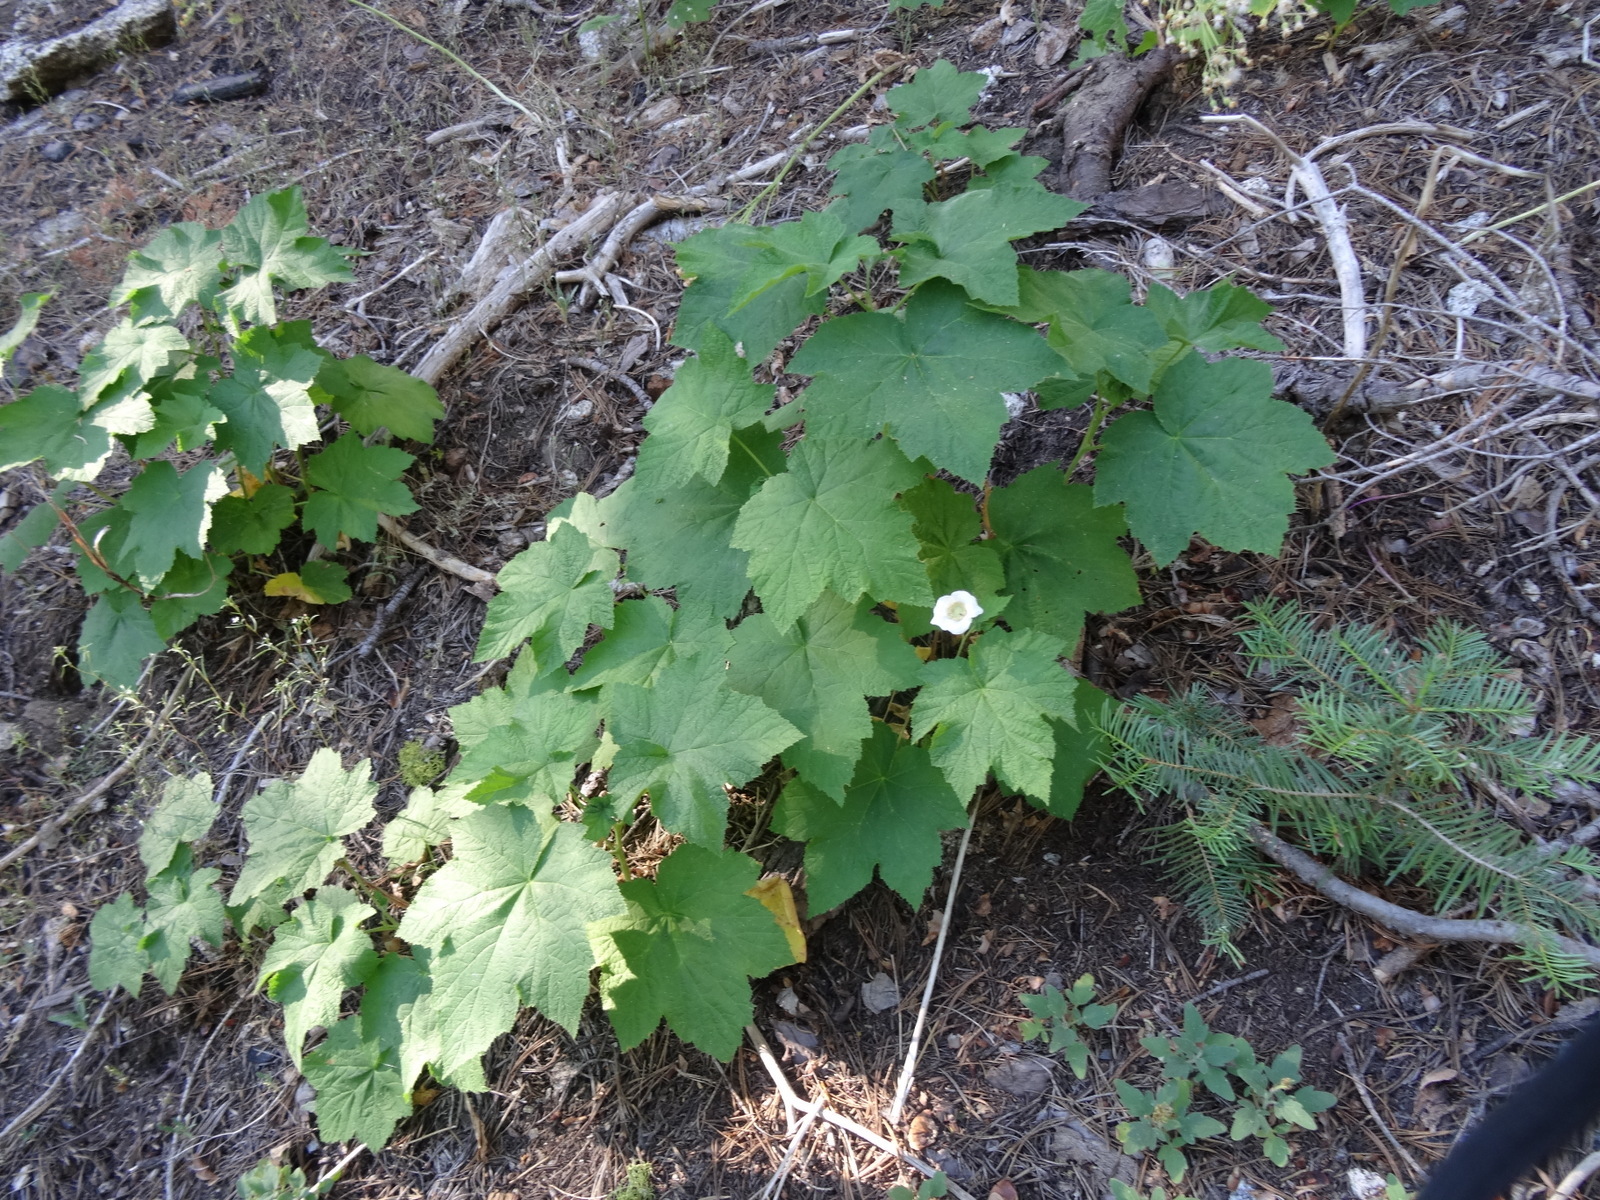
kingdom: Plantae
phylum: Tracheophyta
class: Magnoliopsida
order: Rosales
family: Rosaceae
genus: Rubus
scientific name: Rubus parviflorus
